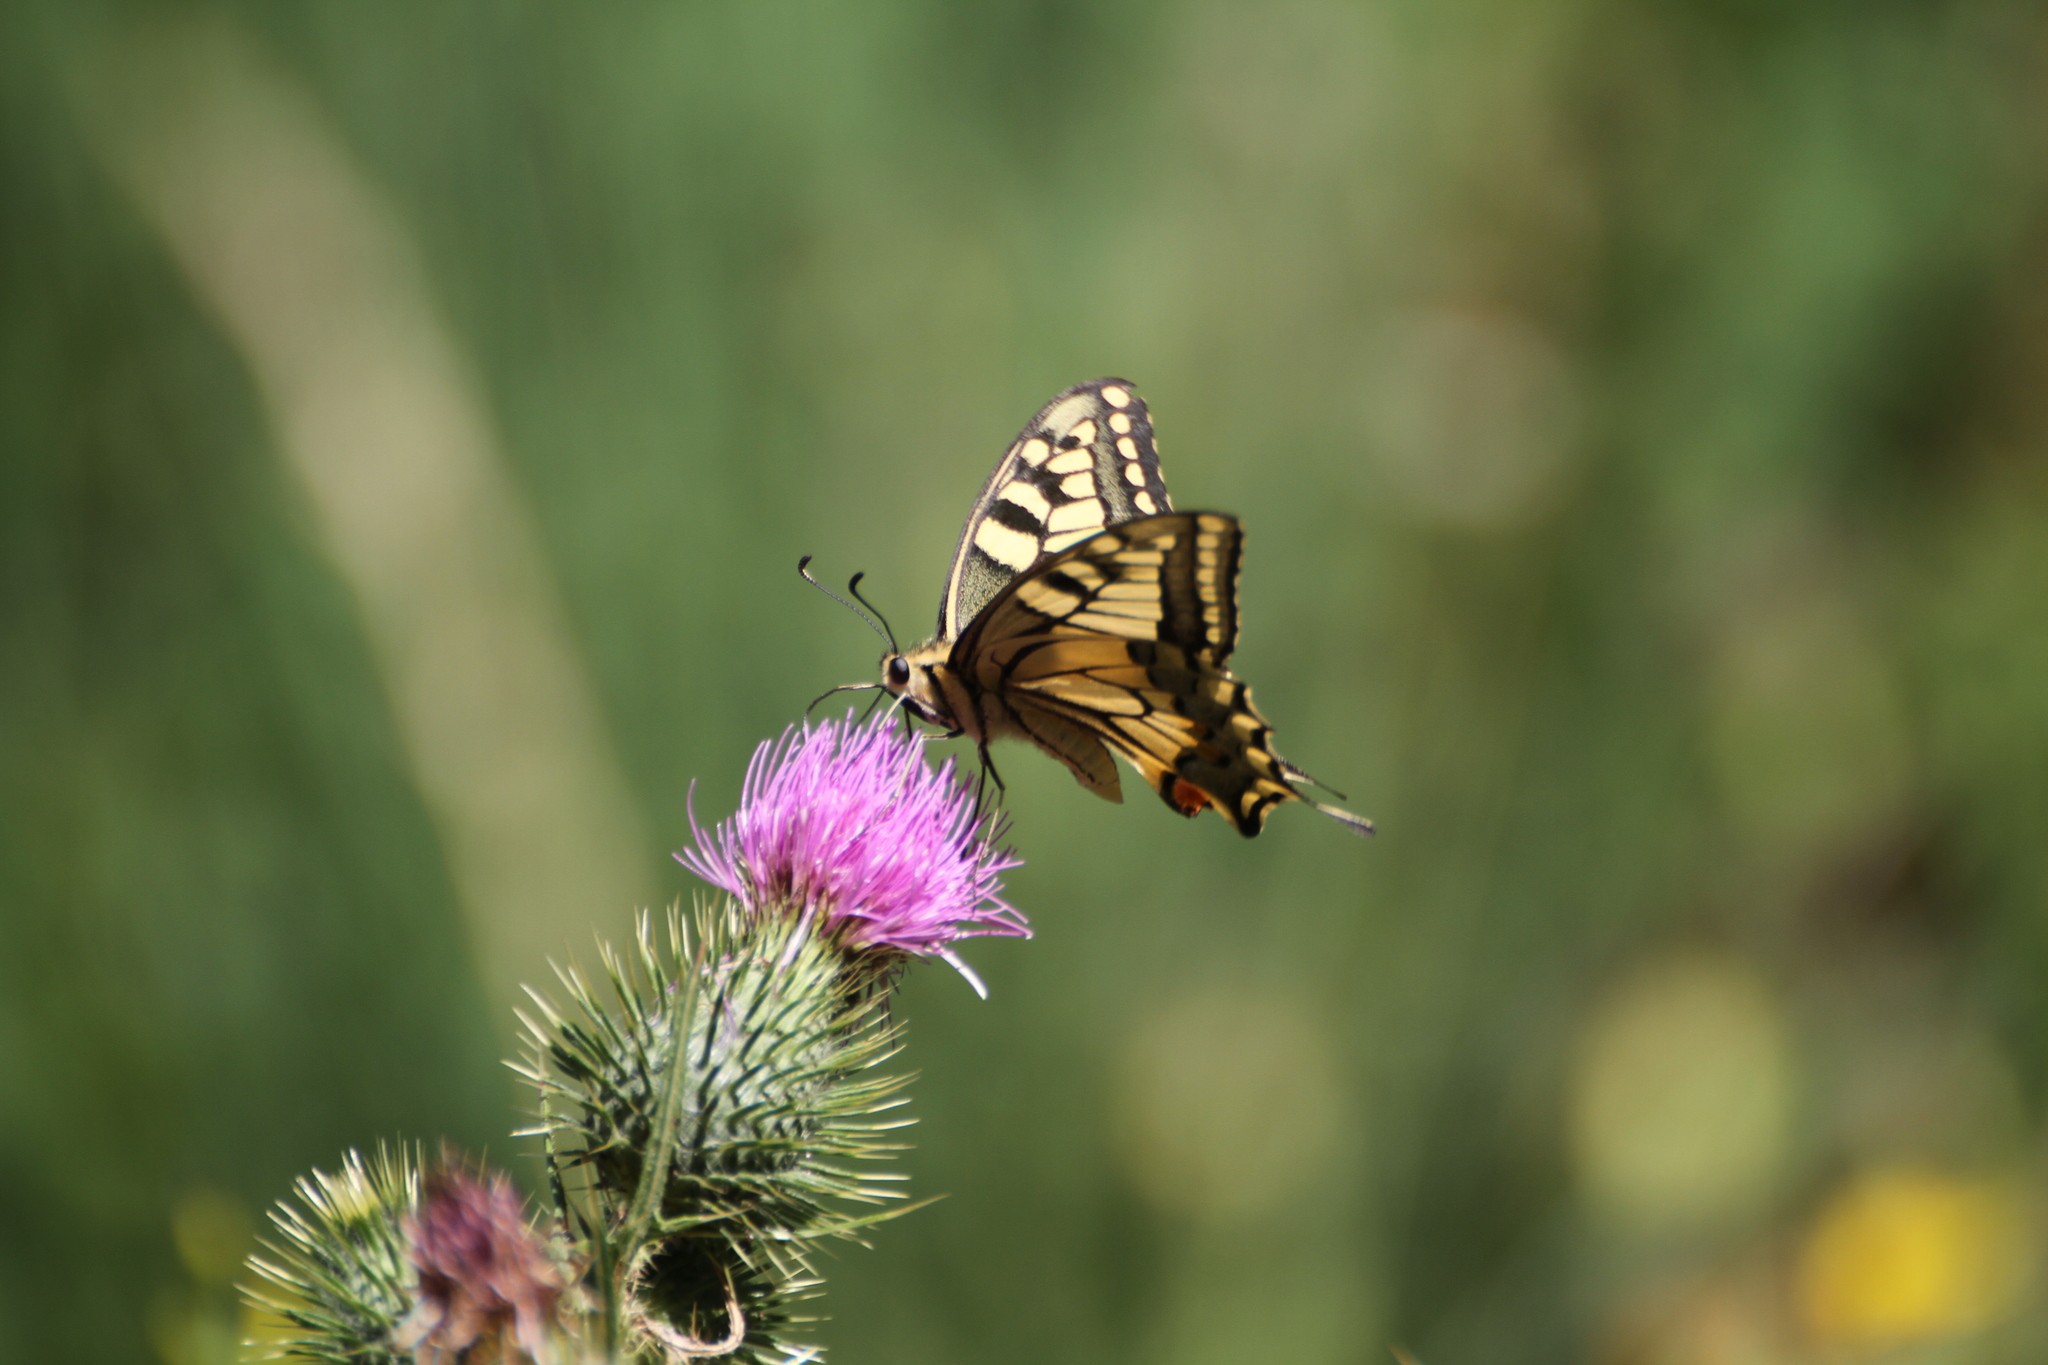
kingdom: Animalia
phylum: Arthropoda
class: Insecta
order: Lepidoptera
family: Papilionidae
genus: Papilio
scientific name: Papilio machaon
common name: Swallowtail
